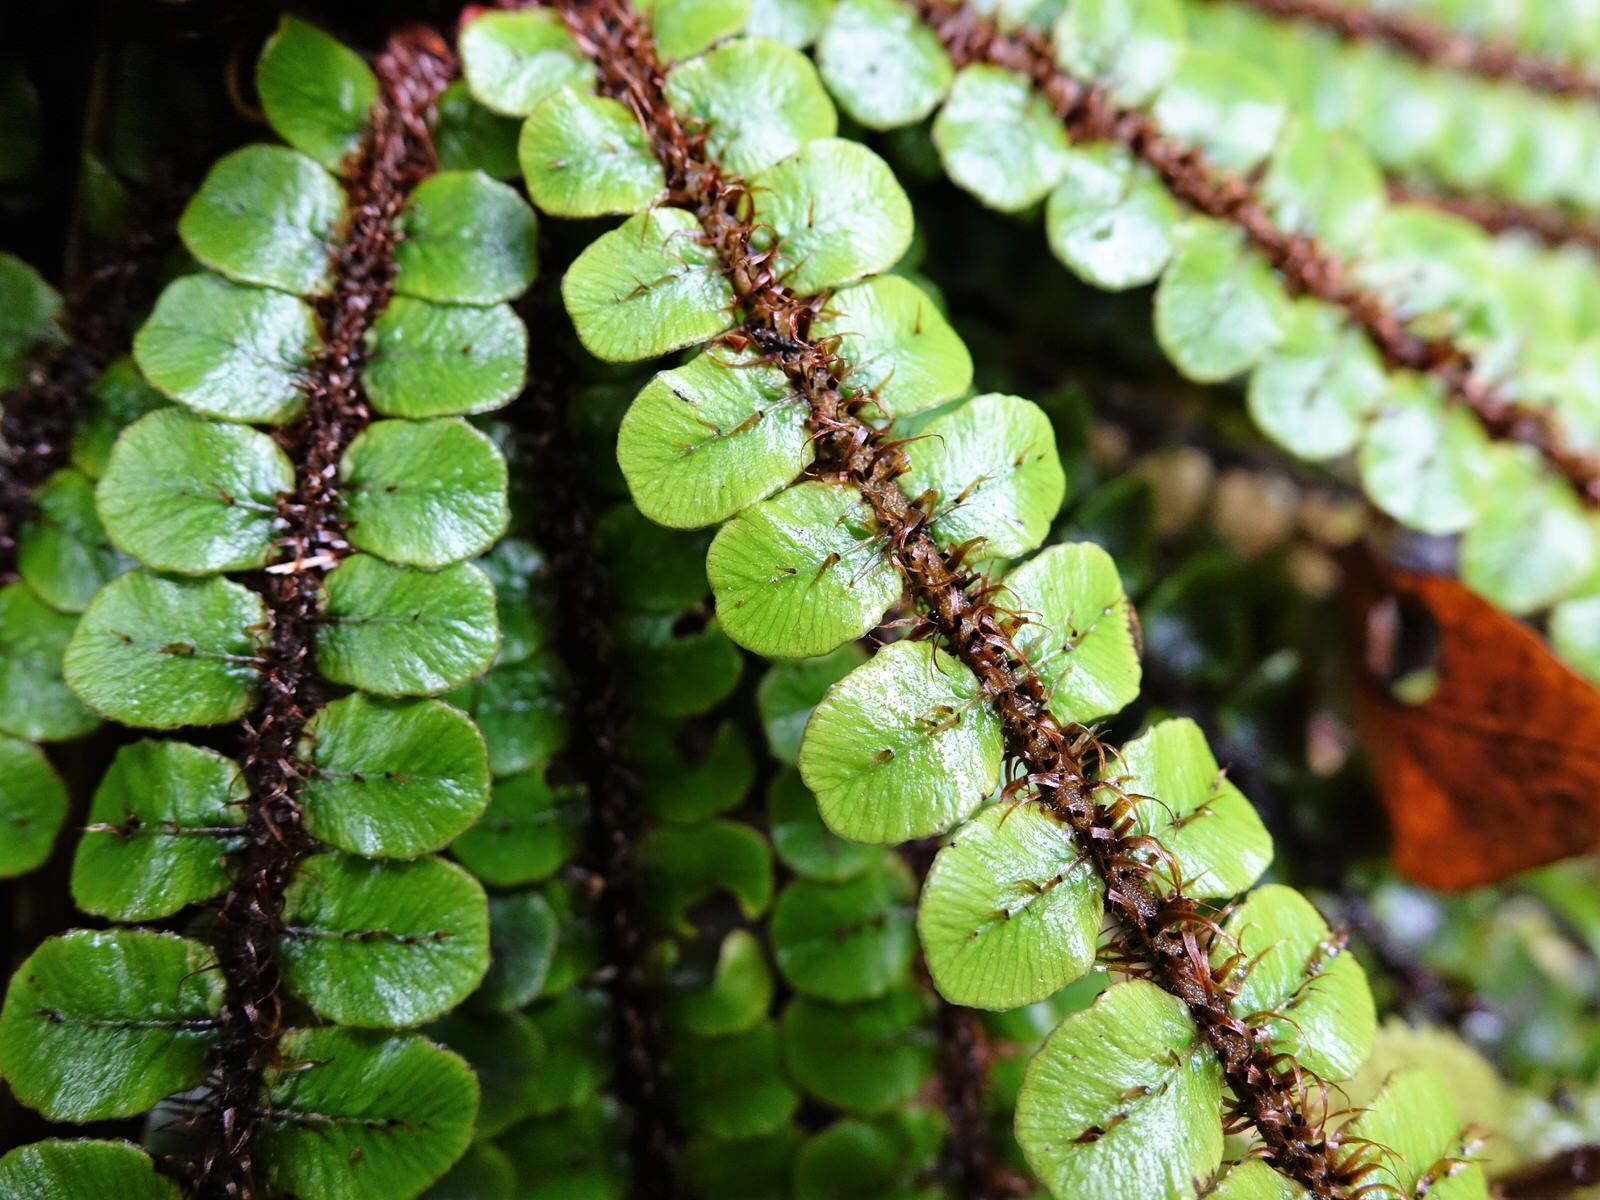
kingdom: Plantae
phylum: Tracheophyta
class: Polypodiopsida
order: Polypodiales
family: Blechnaceae
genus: Cranfillia
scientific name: Cranfillia fluviatilis
